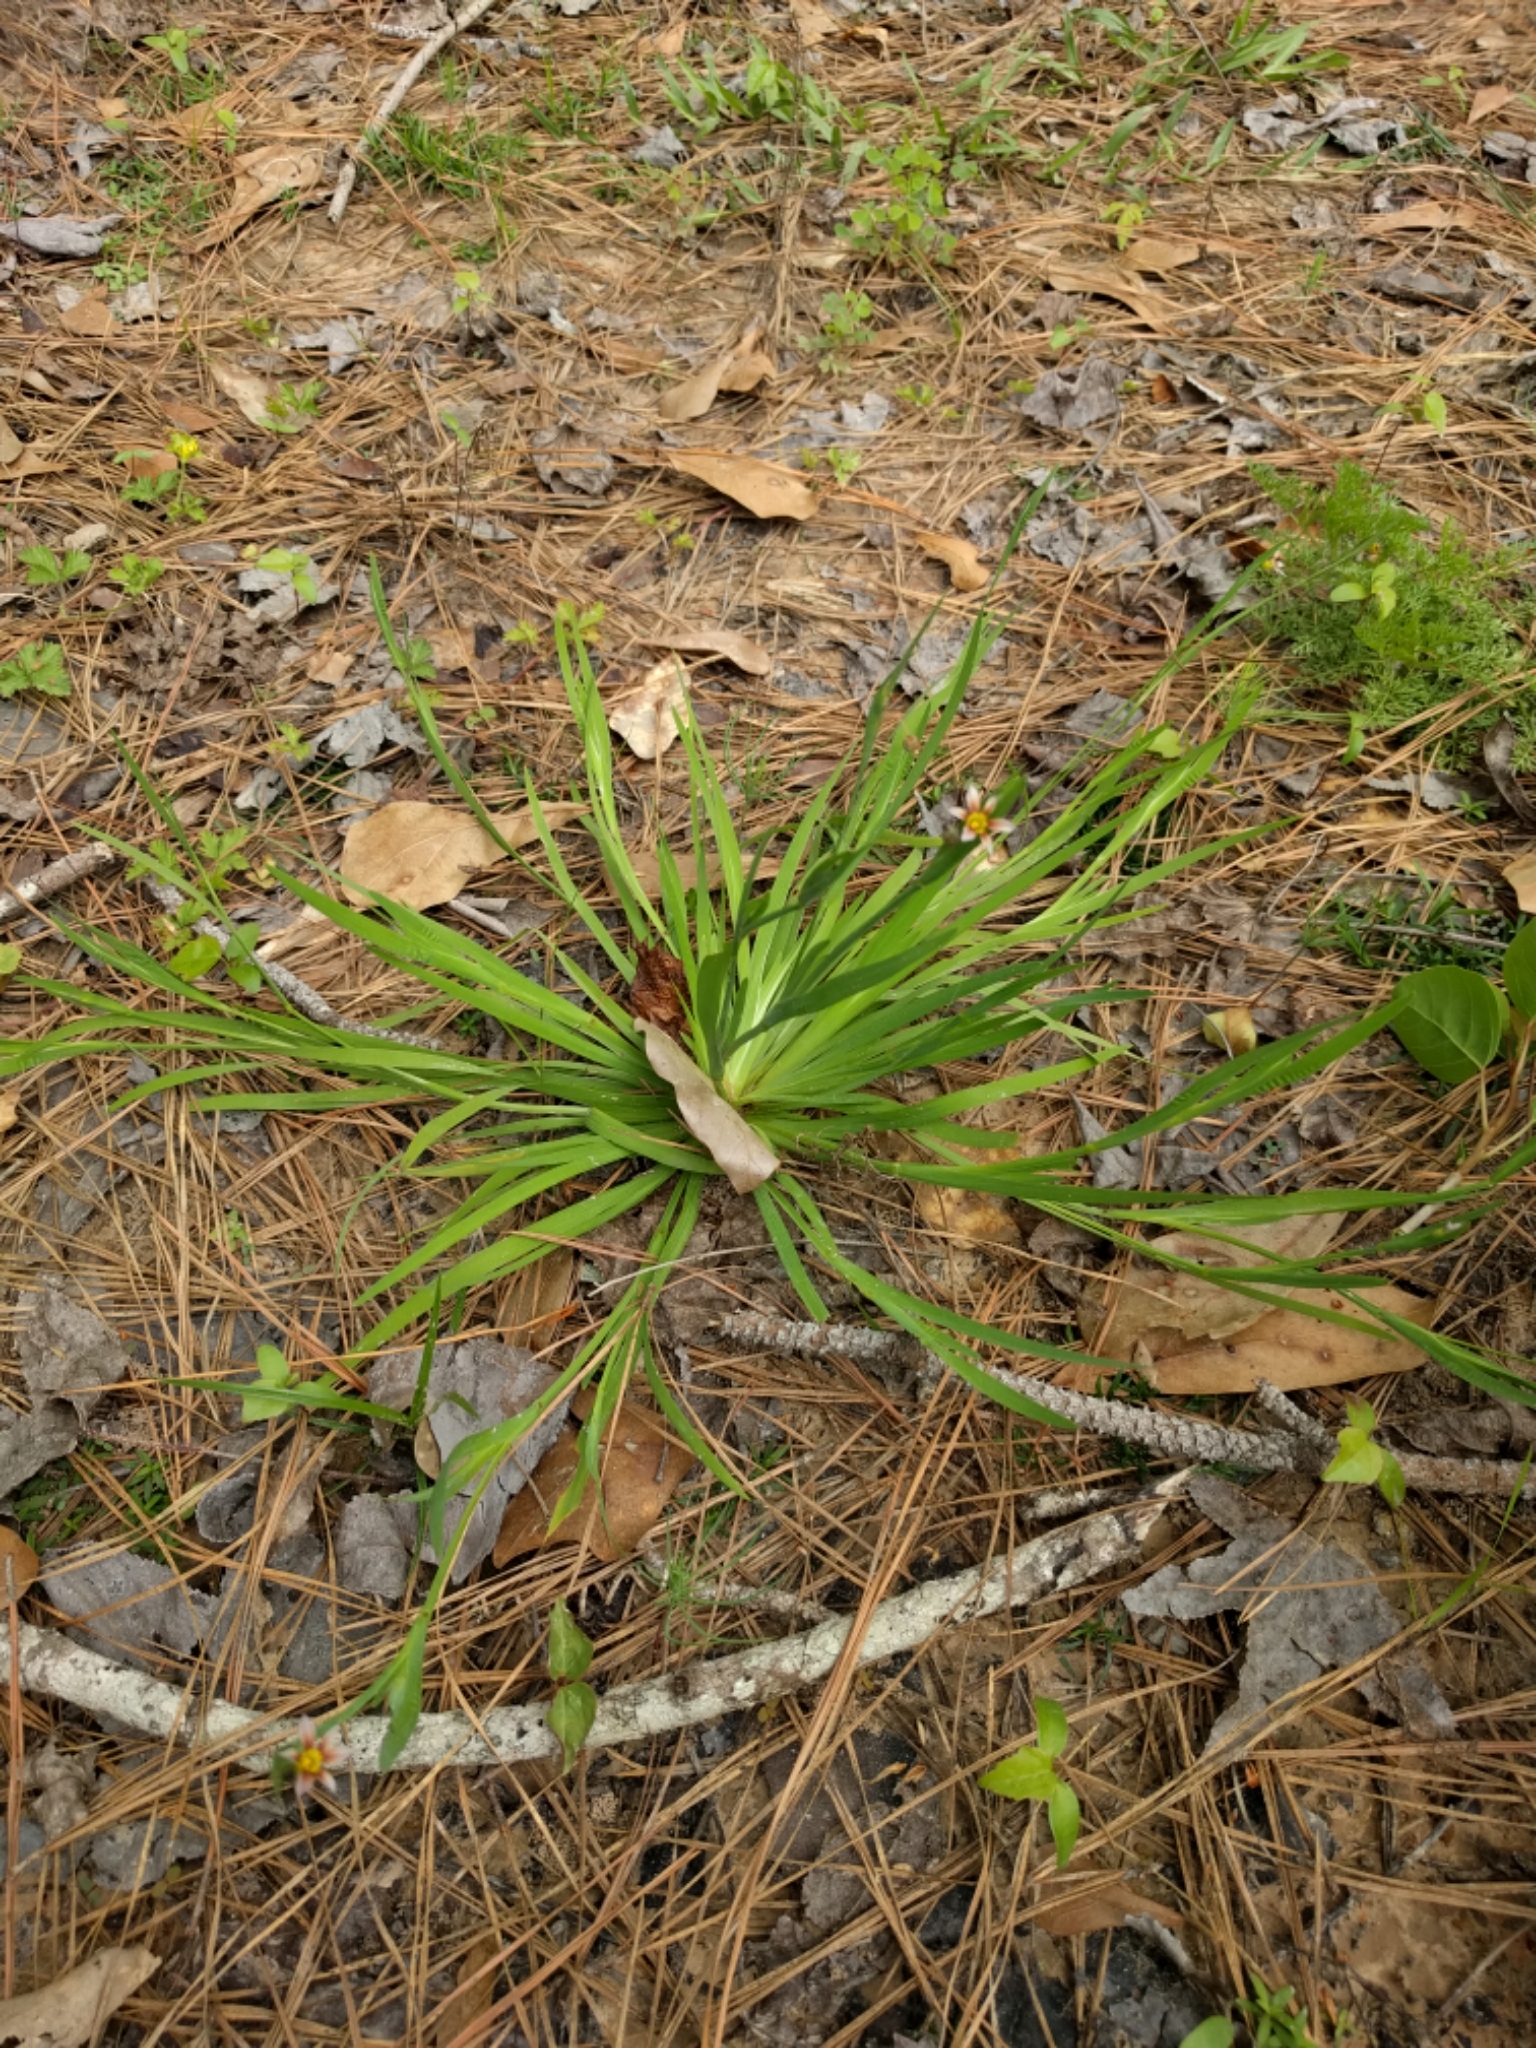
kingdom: Plantae
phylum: Tracheophyta
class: Liliopsida
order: Asparagales
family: Iridaceae
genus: Sisyrinchium
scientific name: Sisyrinchium micranthum
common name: Bermuda pigroot
